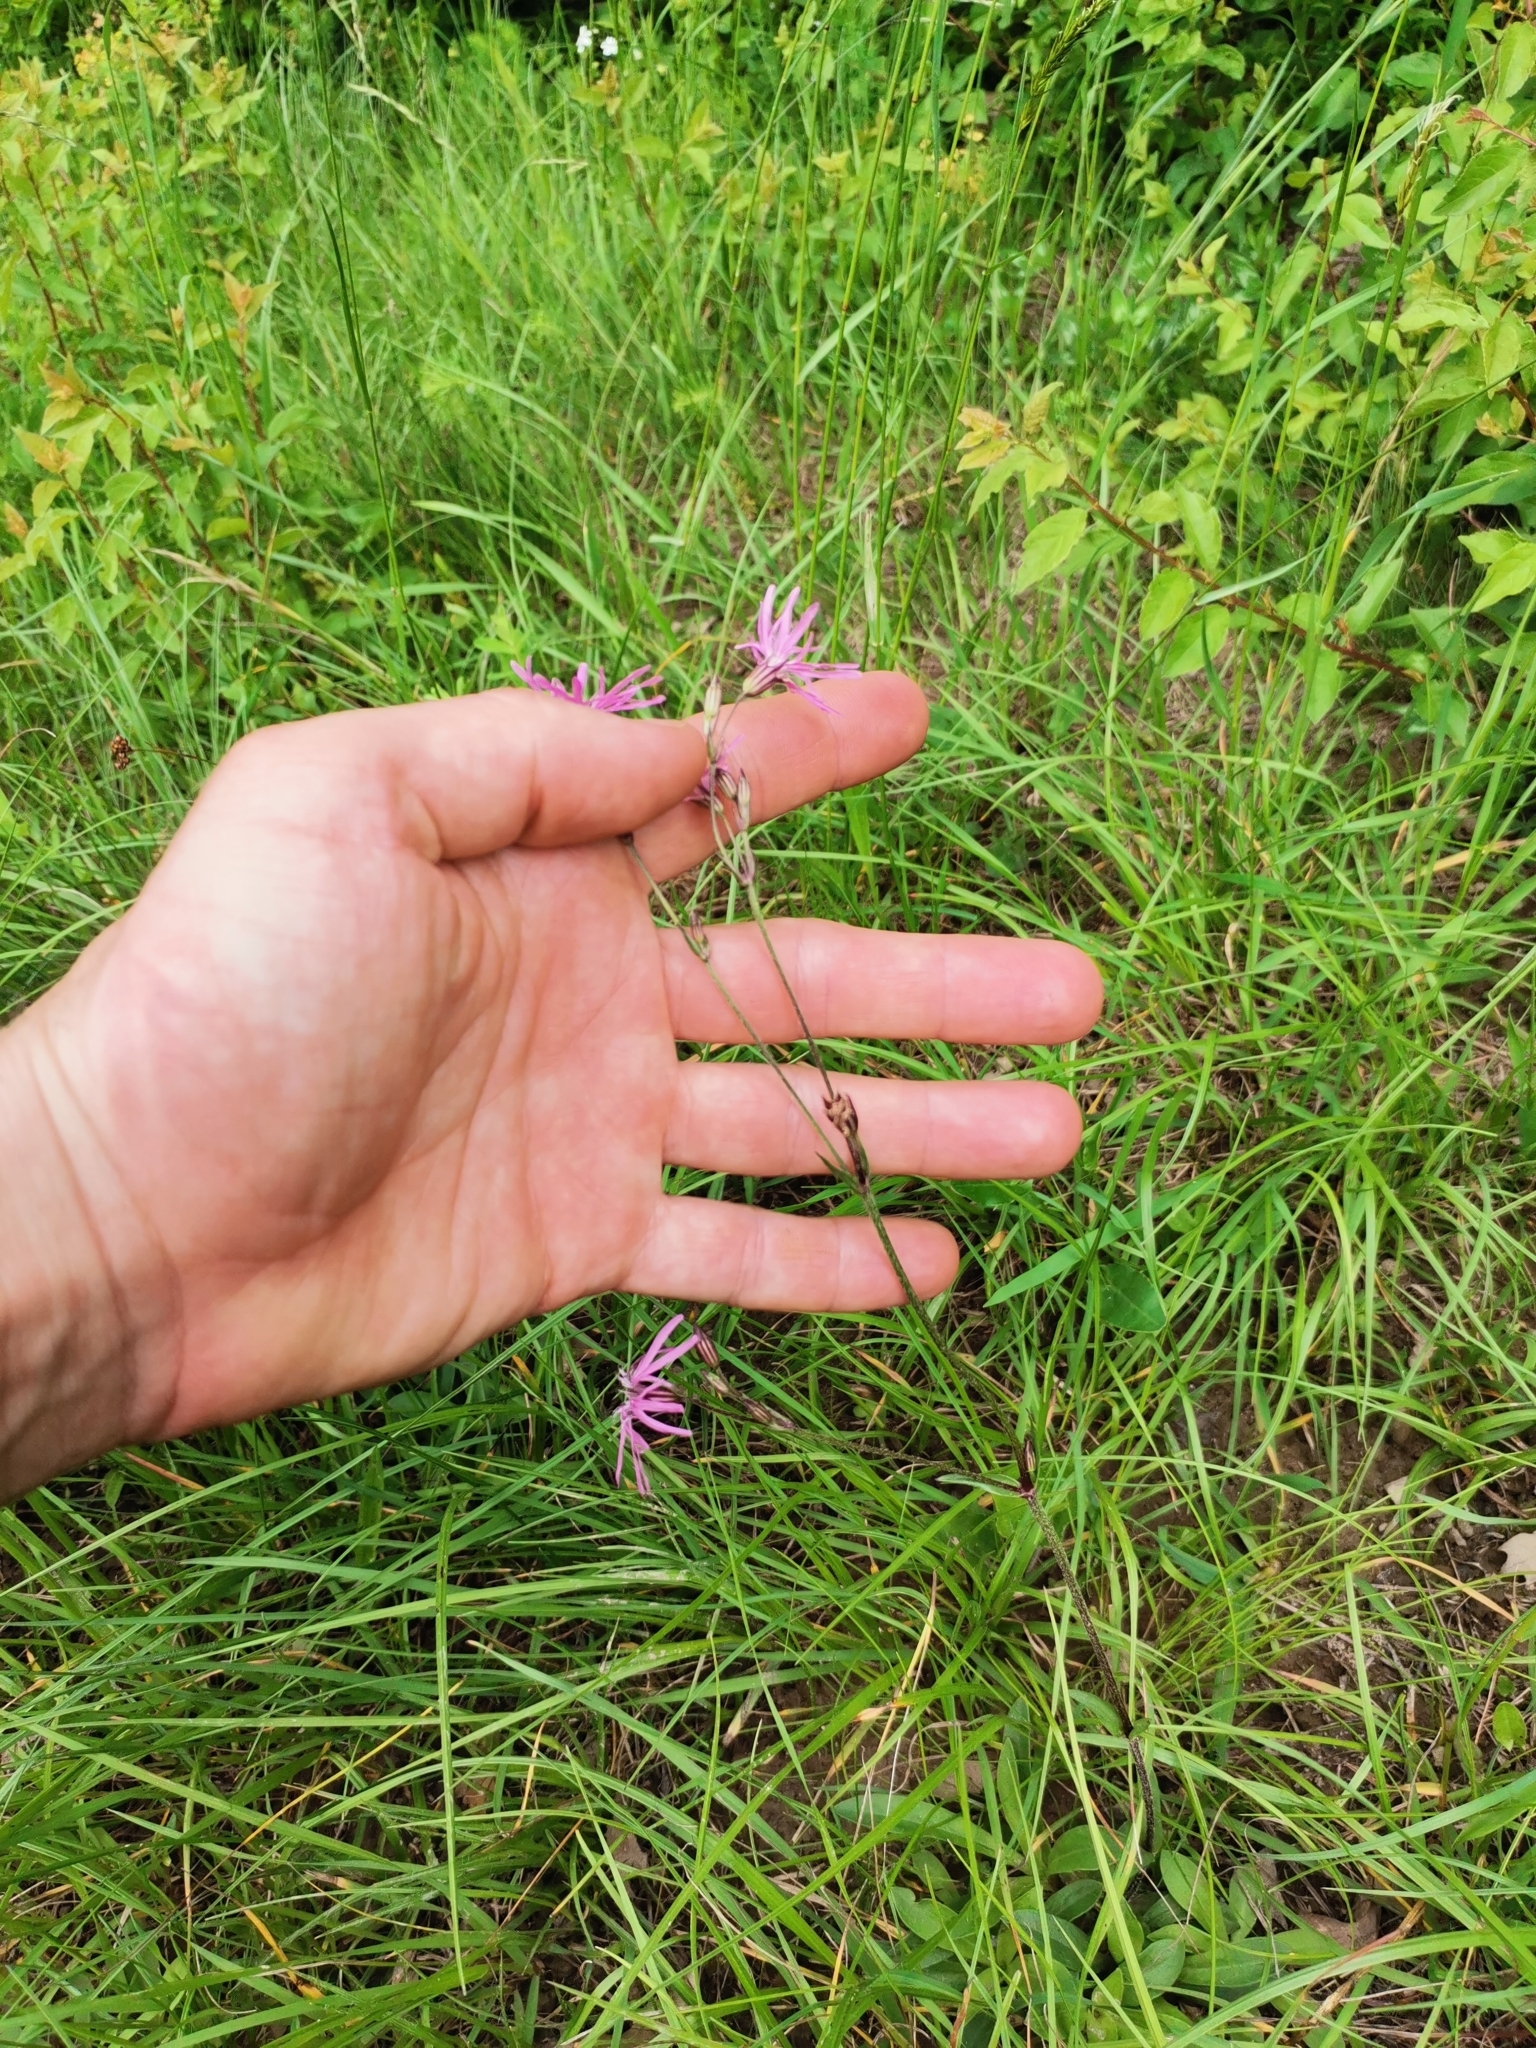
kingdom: Plantae
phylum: Tracheophyta
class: Magnoliopsida
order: Caryophyllales
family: Caryophyllaceae
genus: Silene
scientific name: Silene flos-cuculi
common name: Ragged-robin
